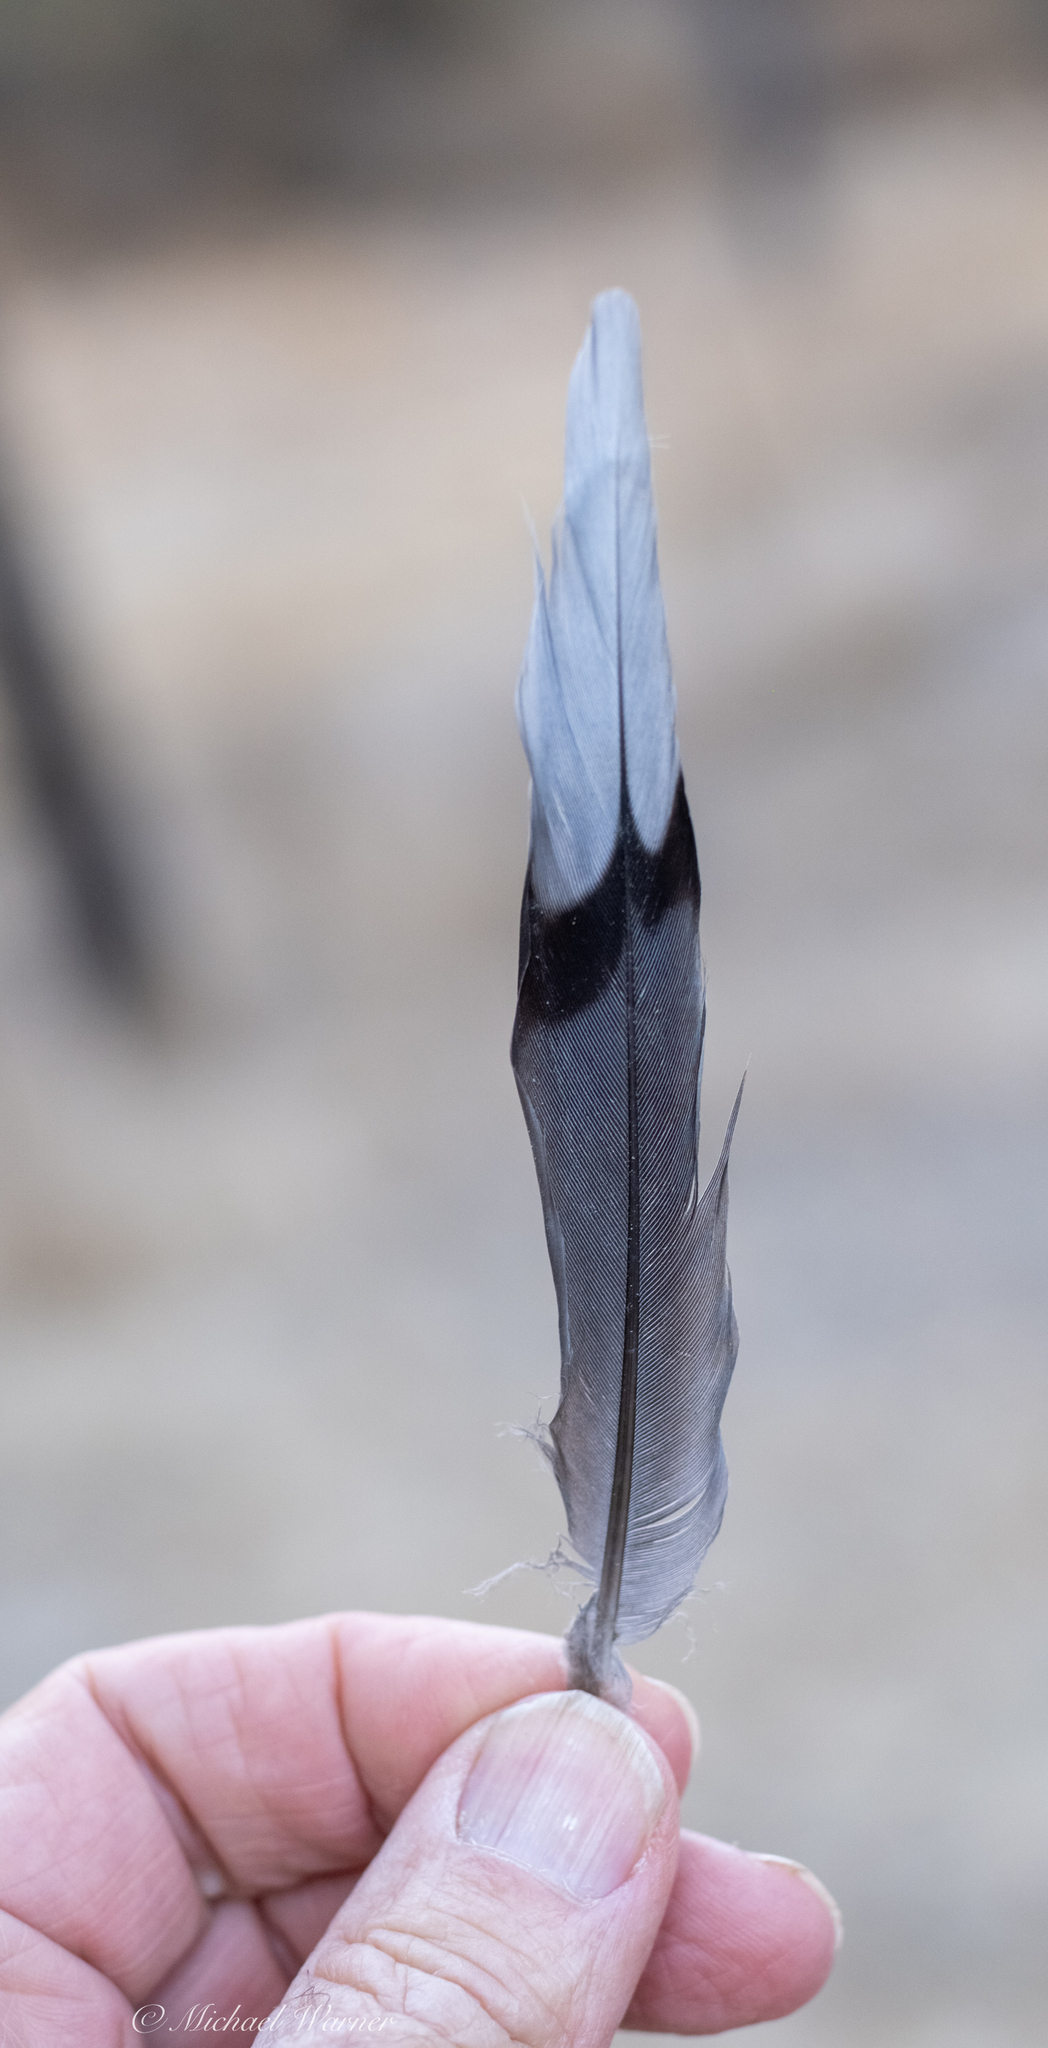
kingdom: Animalia
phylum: Chordata
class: Aves
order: Columbiformes
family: Columbidae
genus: Zenaida
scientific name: Zenaida macroura
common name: Mourning dove
